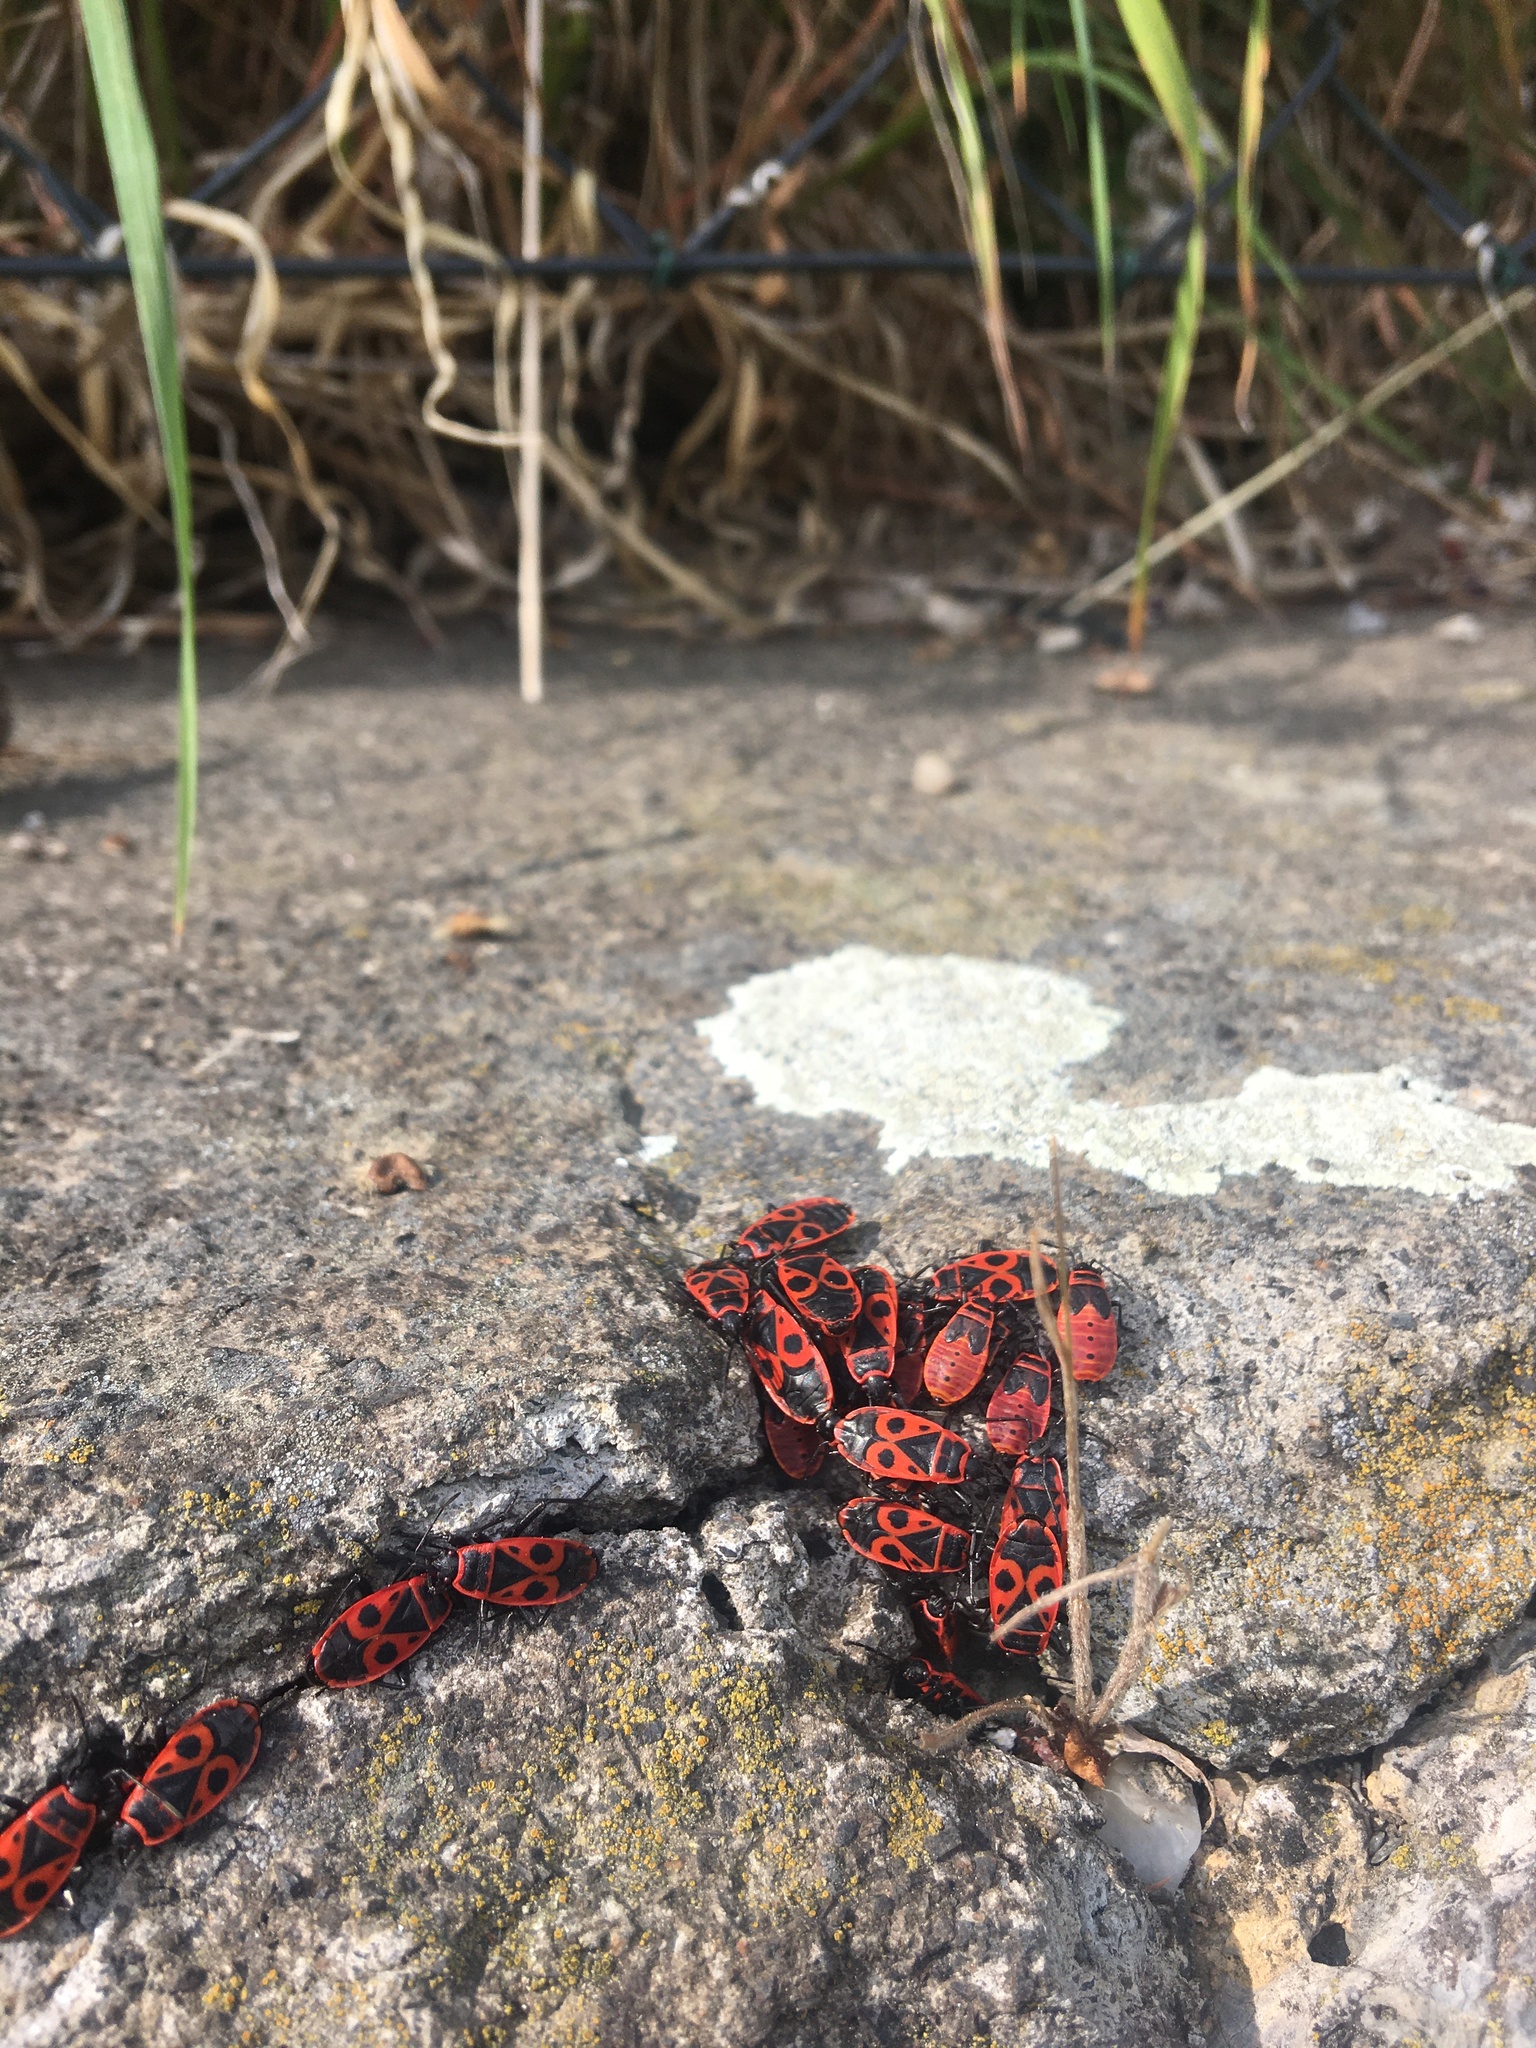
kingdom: Animalia
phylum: Arthropoda
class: Insecta
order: Hemiptera
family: Pyrrhocoridae
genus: Pyrrhocoris
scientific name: Pyrrhocoris apterus
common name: Firebug
